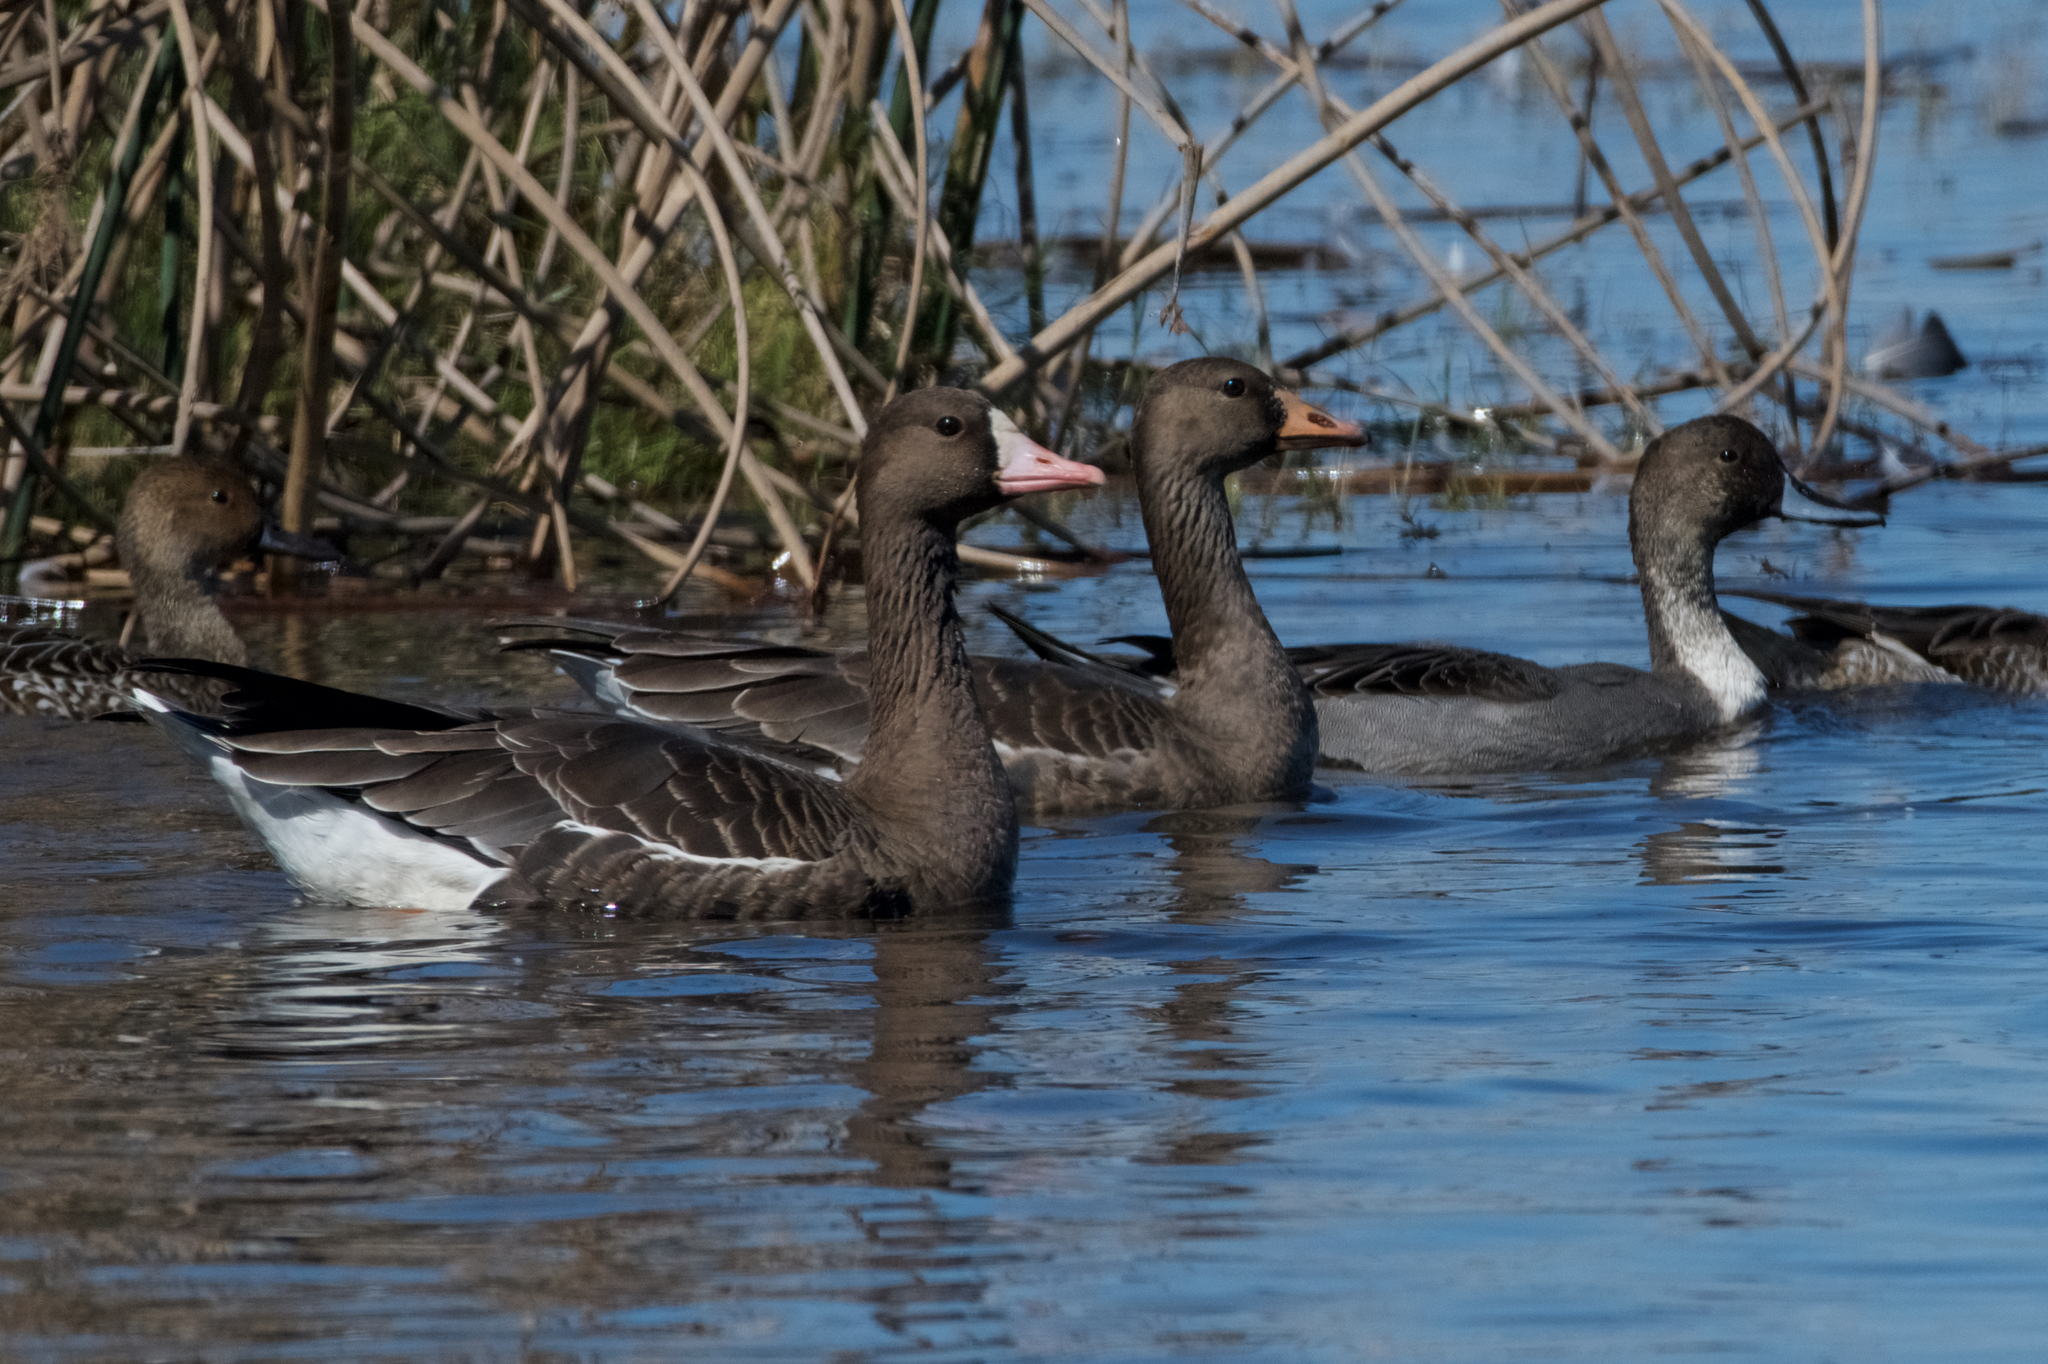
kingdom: Animalia
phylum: Chordata
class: Aves
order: Anseriformes
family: Anatidae
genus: Anser
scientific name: Anser albifrons
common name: Greater white-fronted goose
